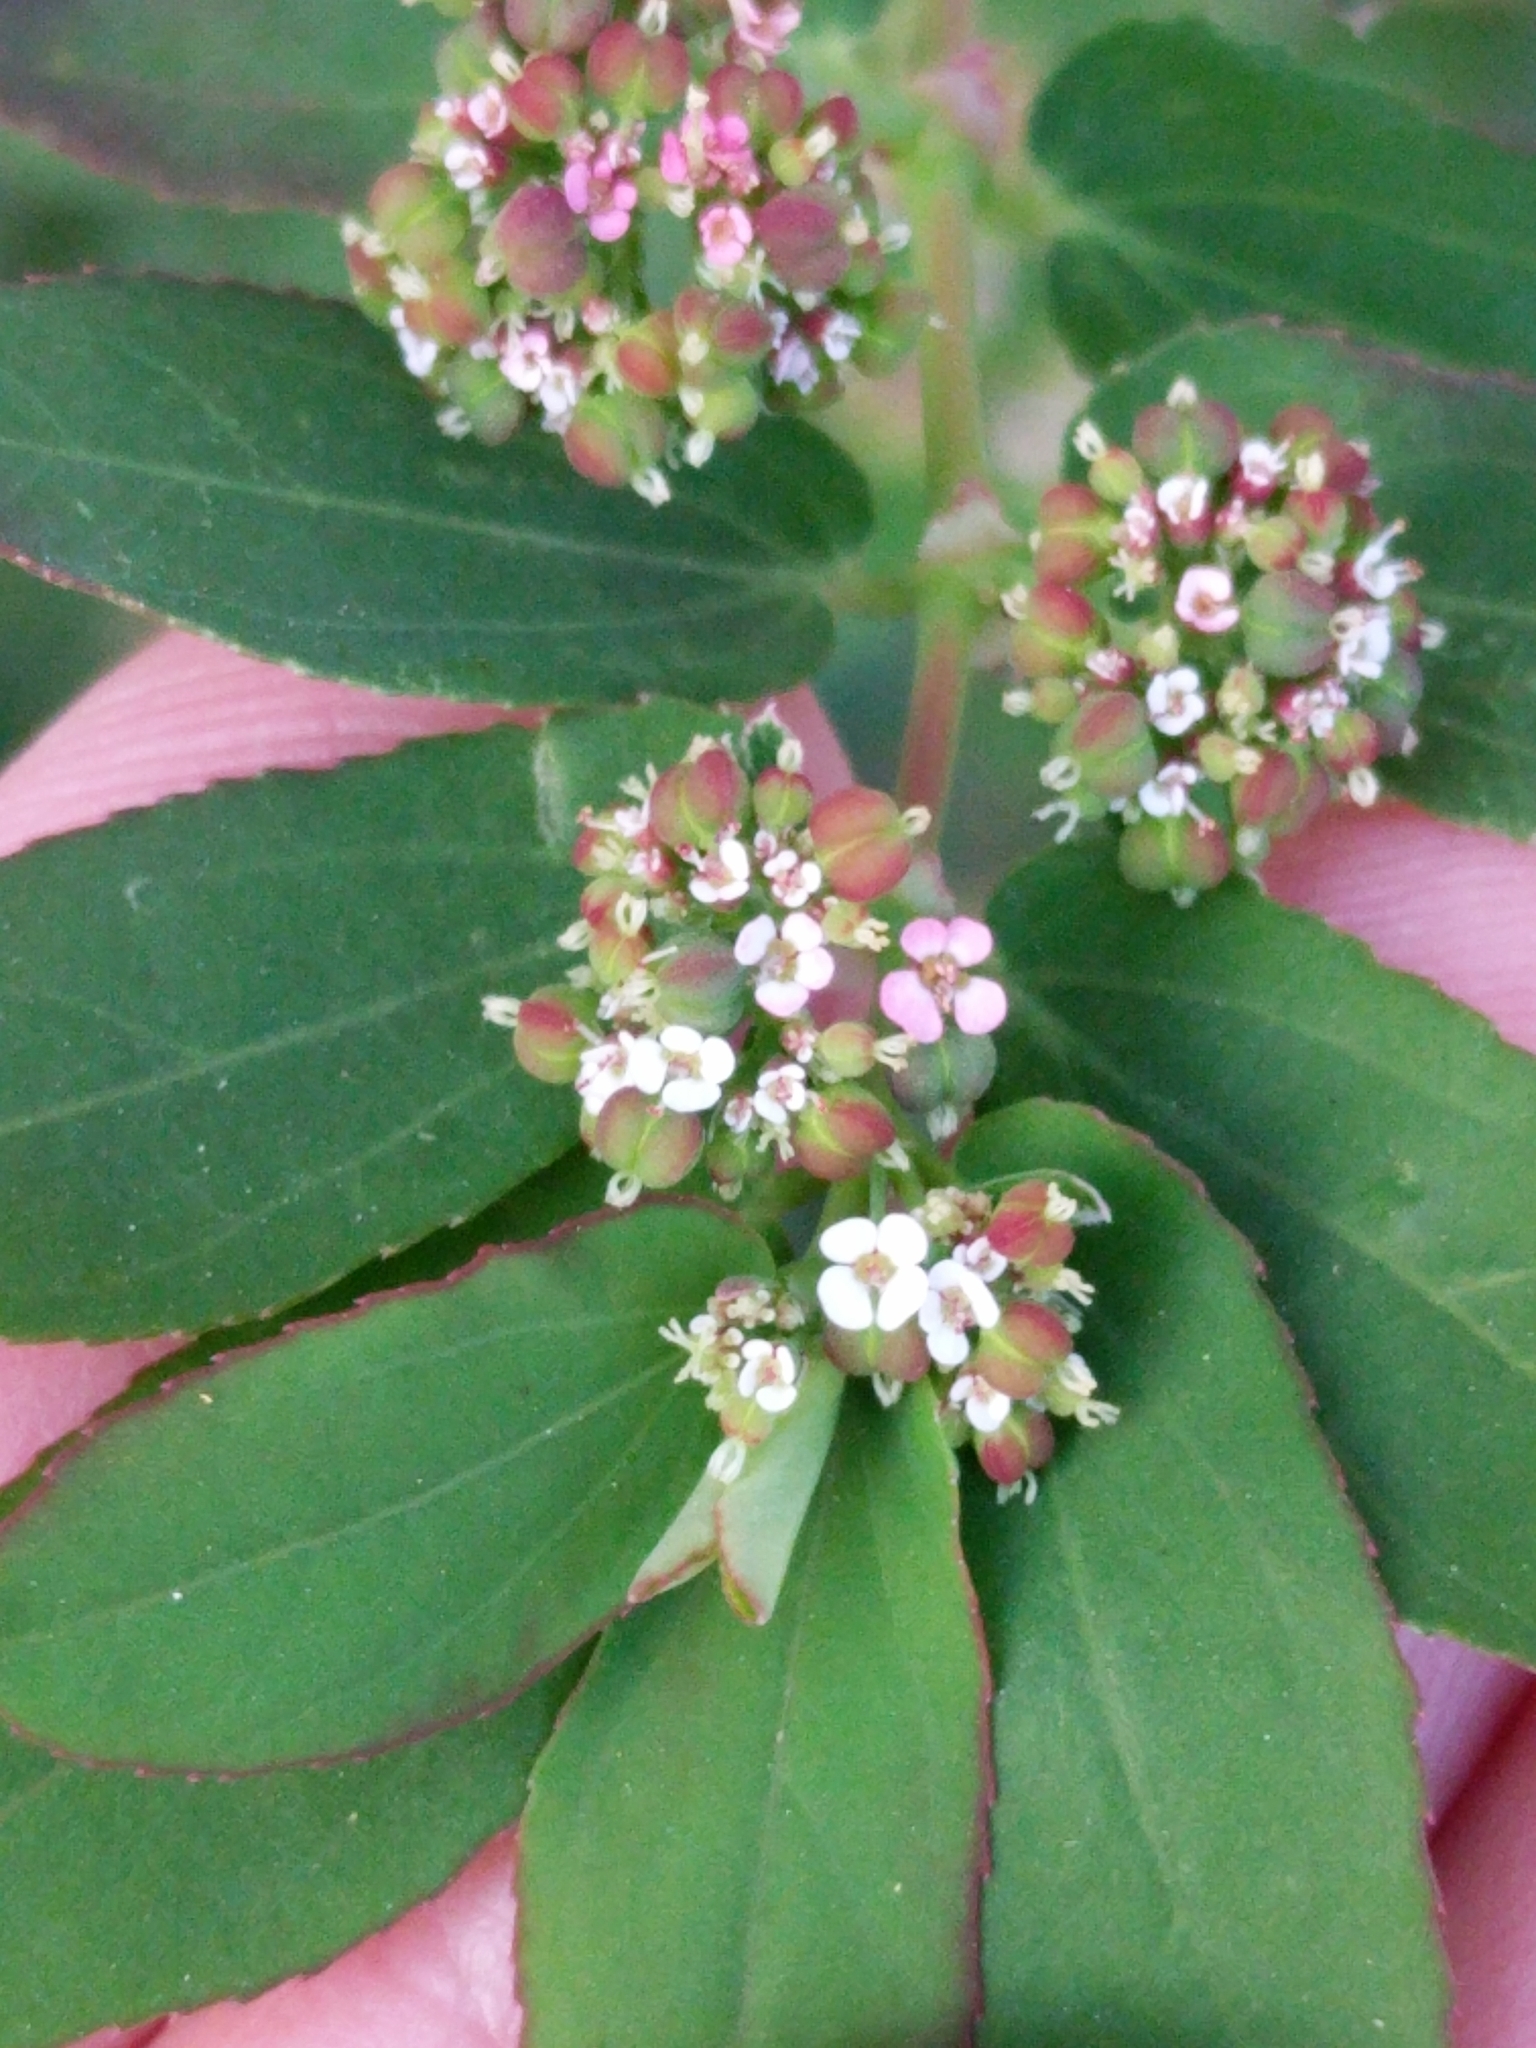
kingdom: Plantae
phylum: Tracheophyta
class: Magnoliopsida
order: Malpighiales
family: Euphorbiaceae
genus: Euphorbia
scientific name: Euphorbia hypericifolia
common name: Graceful sandmat
